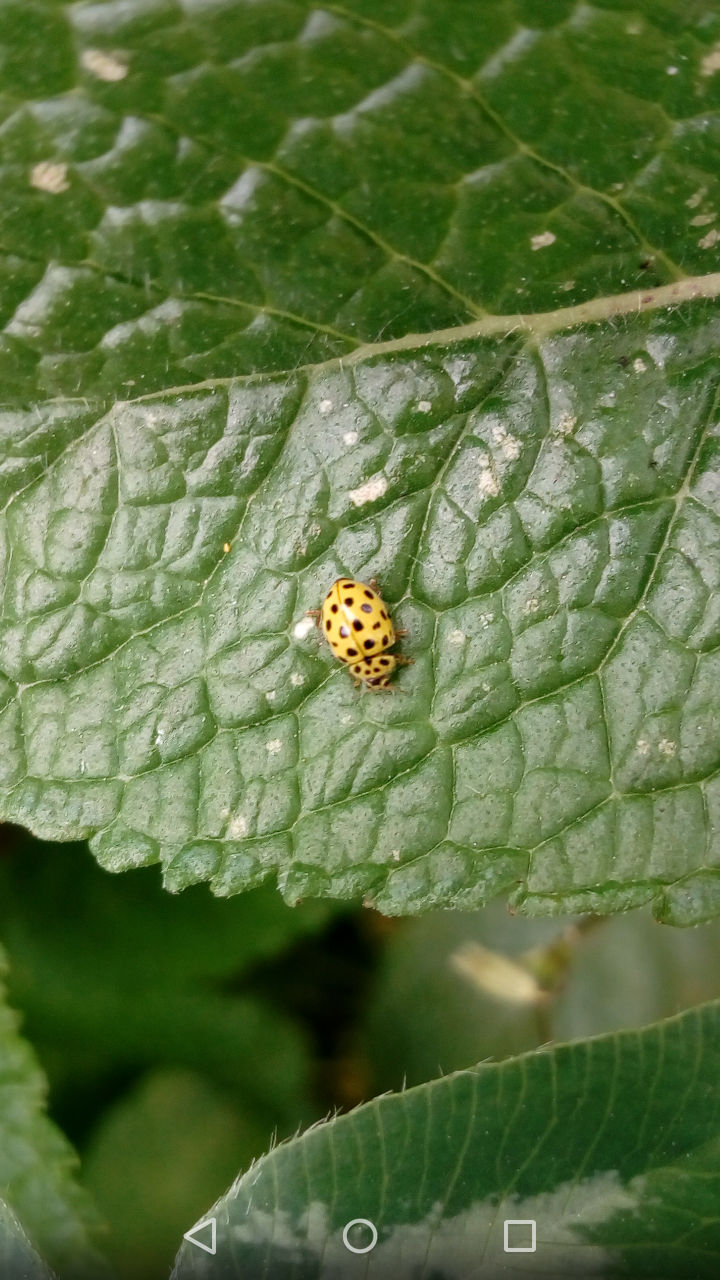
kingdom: Animalia
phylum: Arthropoda
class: Insecta
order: Coleoptera
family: Coccinellidae
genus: Psyllobora
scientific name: Psyllobora vigintiduopunctata
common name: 22-spot ladybird
